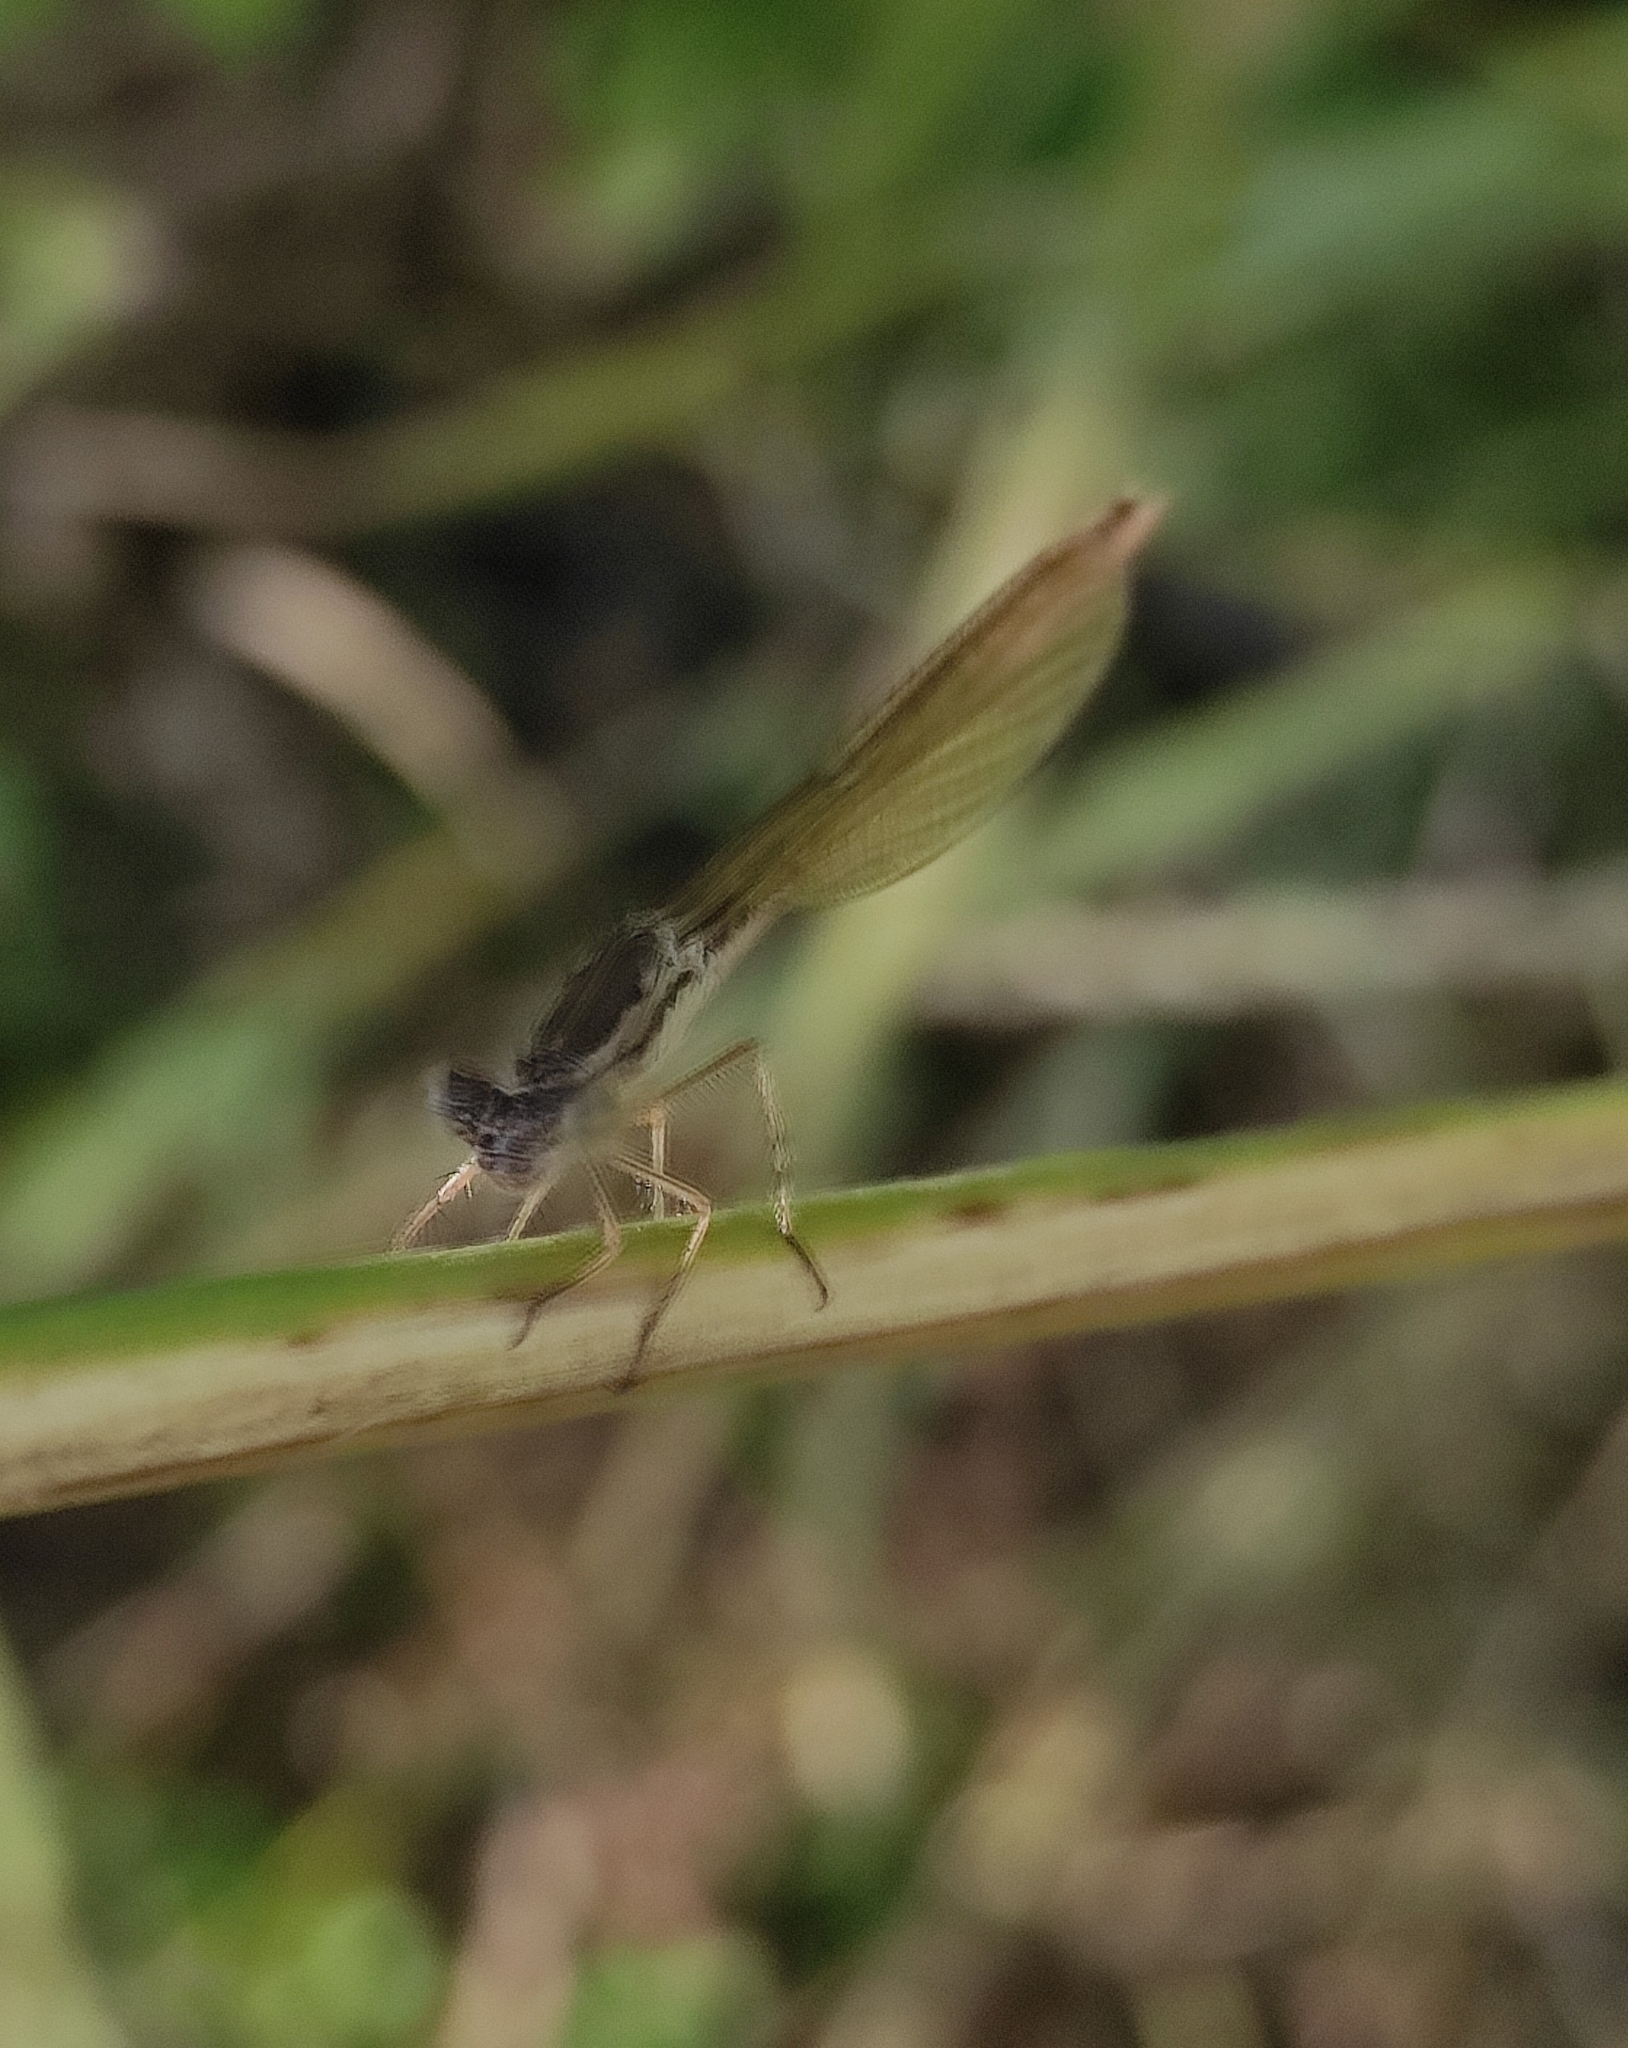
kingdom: Animalia
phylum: Arthropoda
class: Insecta
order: Odonata
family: Lestidae
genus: Sympecma
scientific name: Sympecma paedisca
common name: Siberian winter damsel
